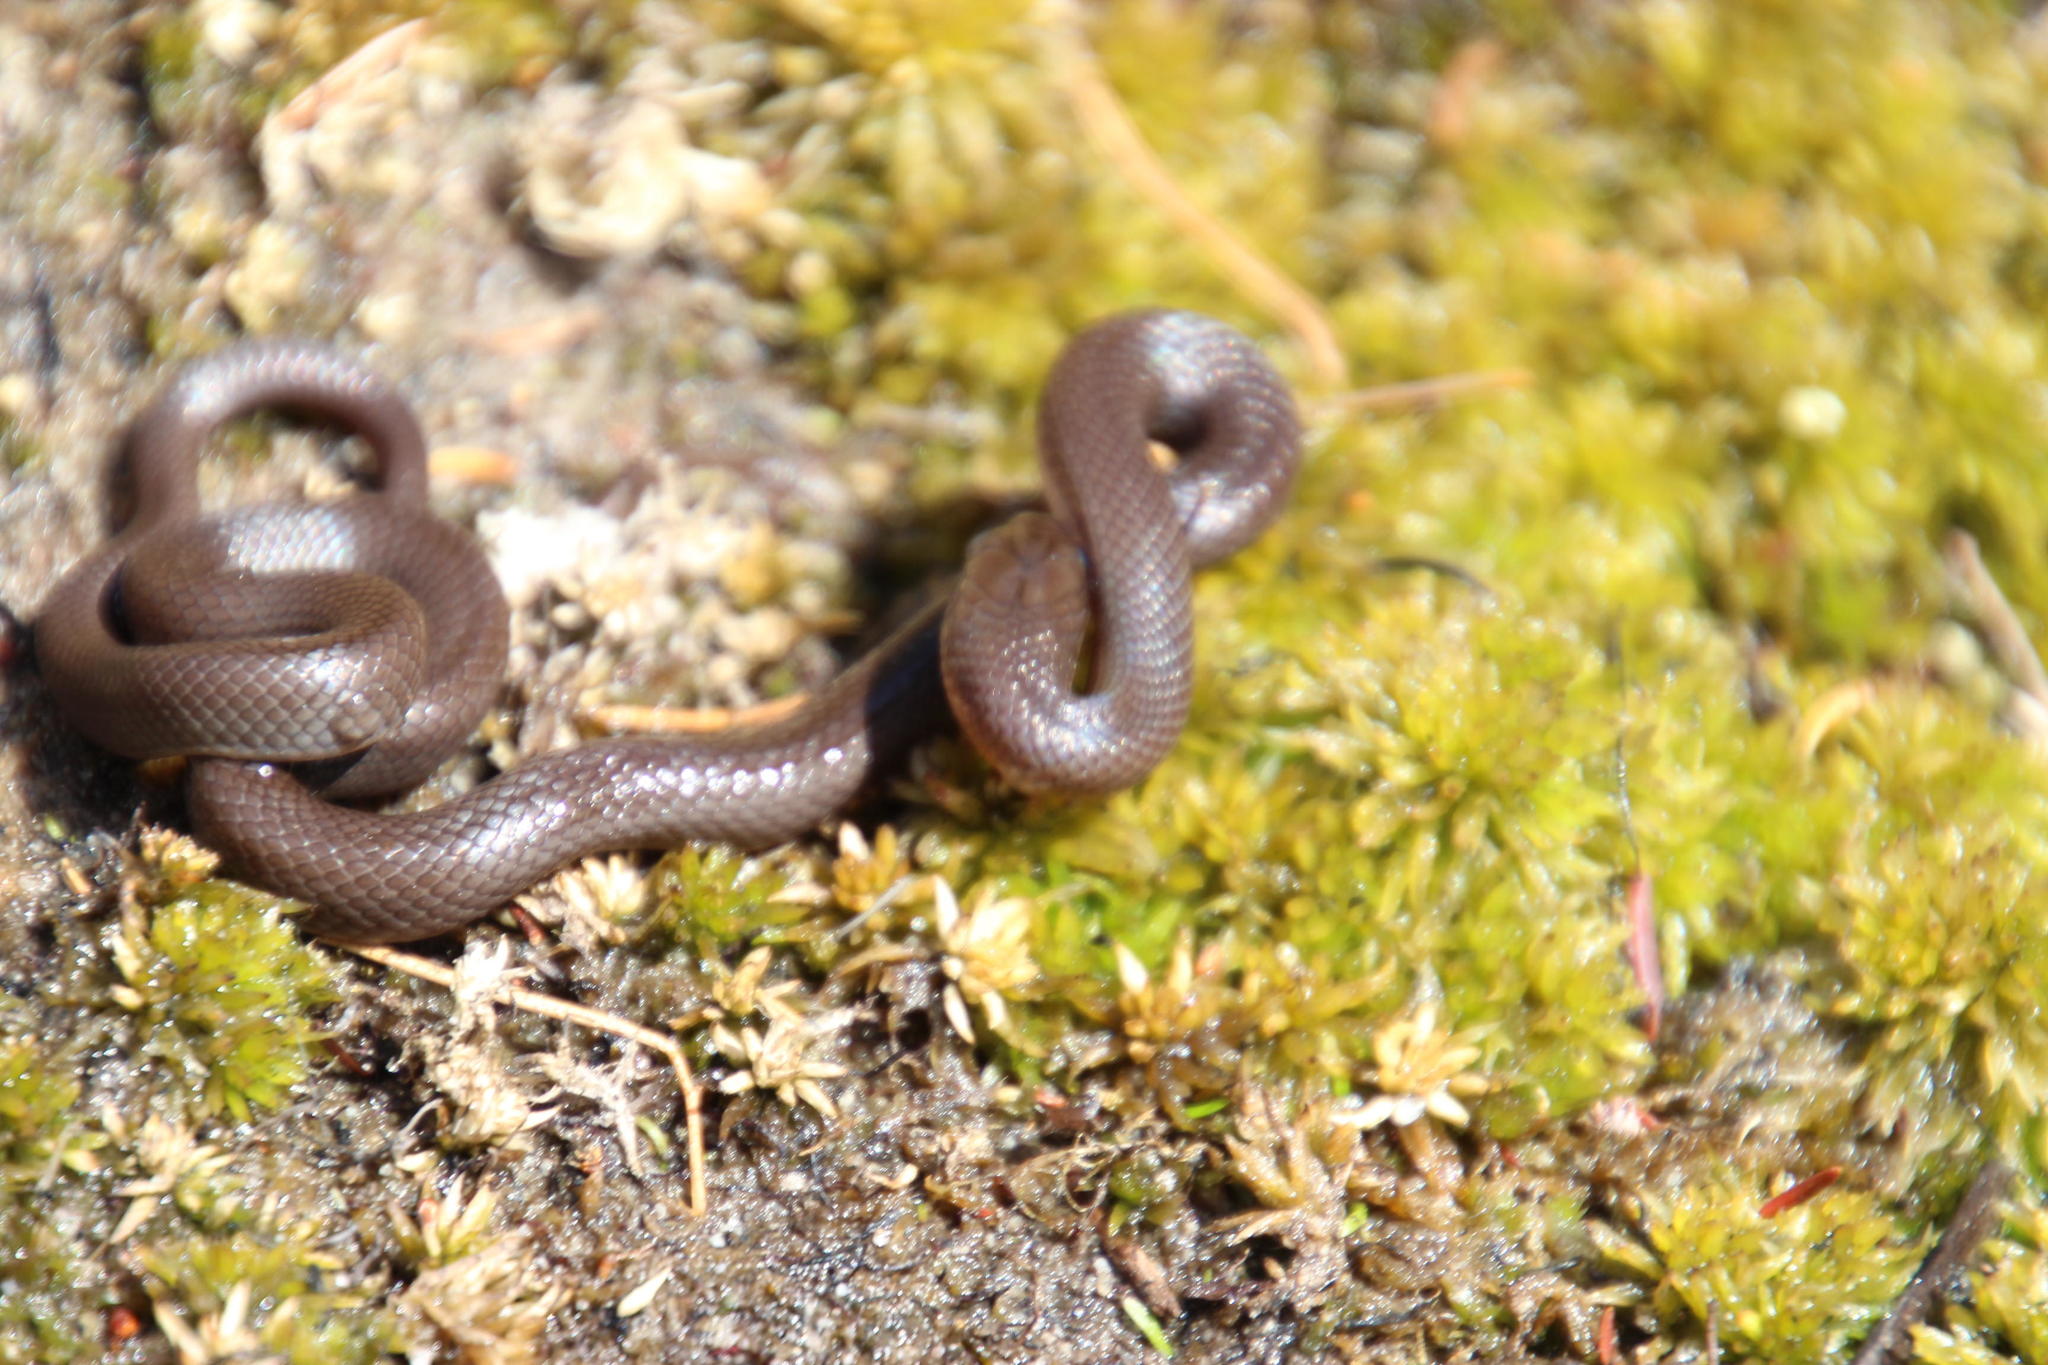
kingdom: Animalia
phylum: Chordata
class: Squamata
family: Lamprophiidae
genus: Lycodonomorphus
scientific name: Lycodonomorphus rufulus
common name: Brown water snake
